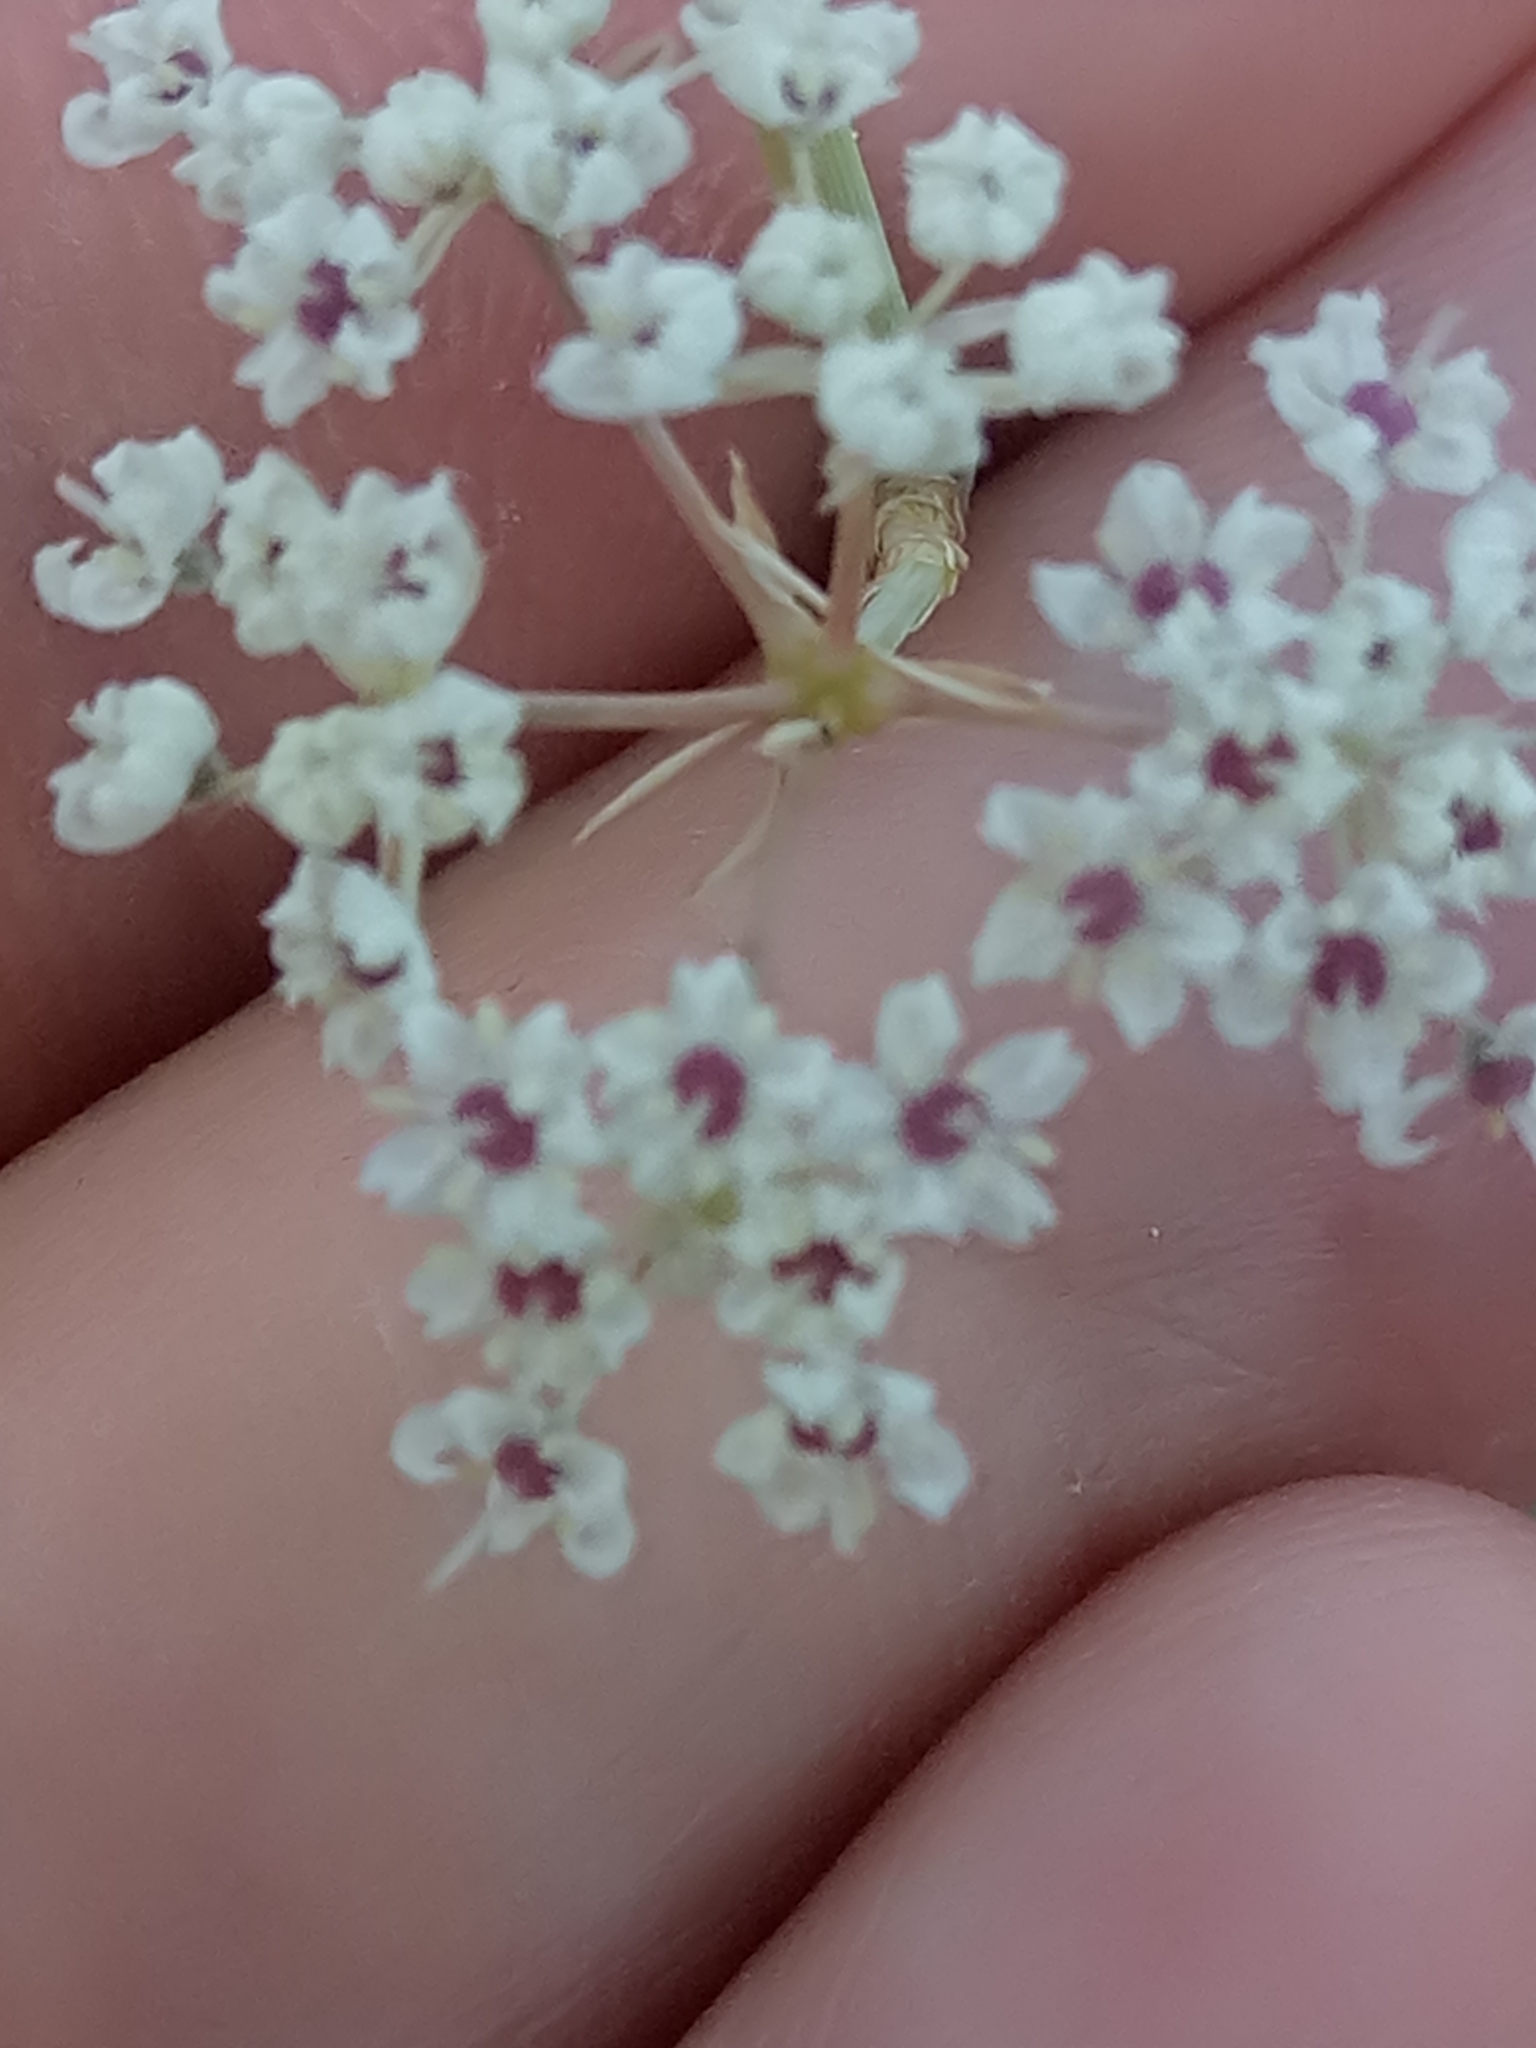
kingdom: Plantae
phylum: Tracheophyta
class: Magnoliopsida
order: Apiales
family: Apiaceae
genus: Deverra
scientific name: Deverra scoparia
